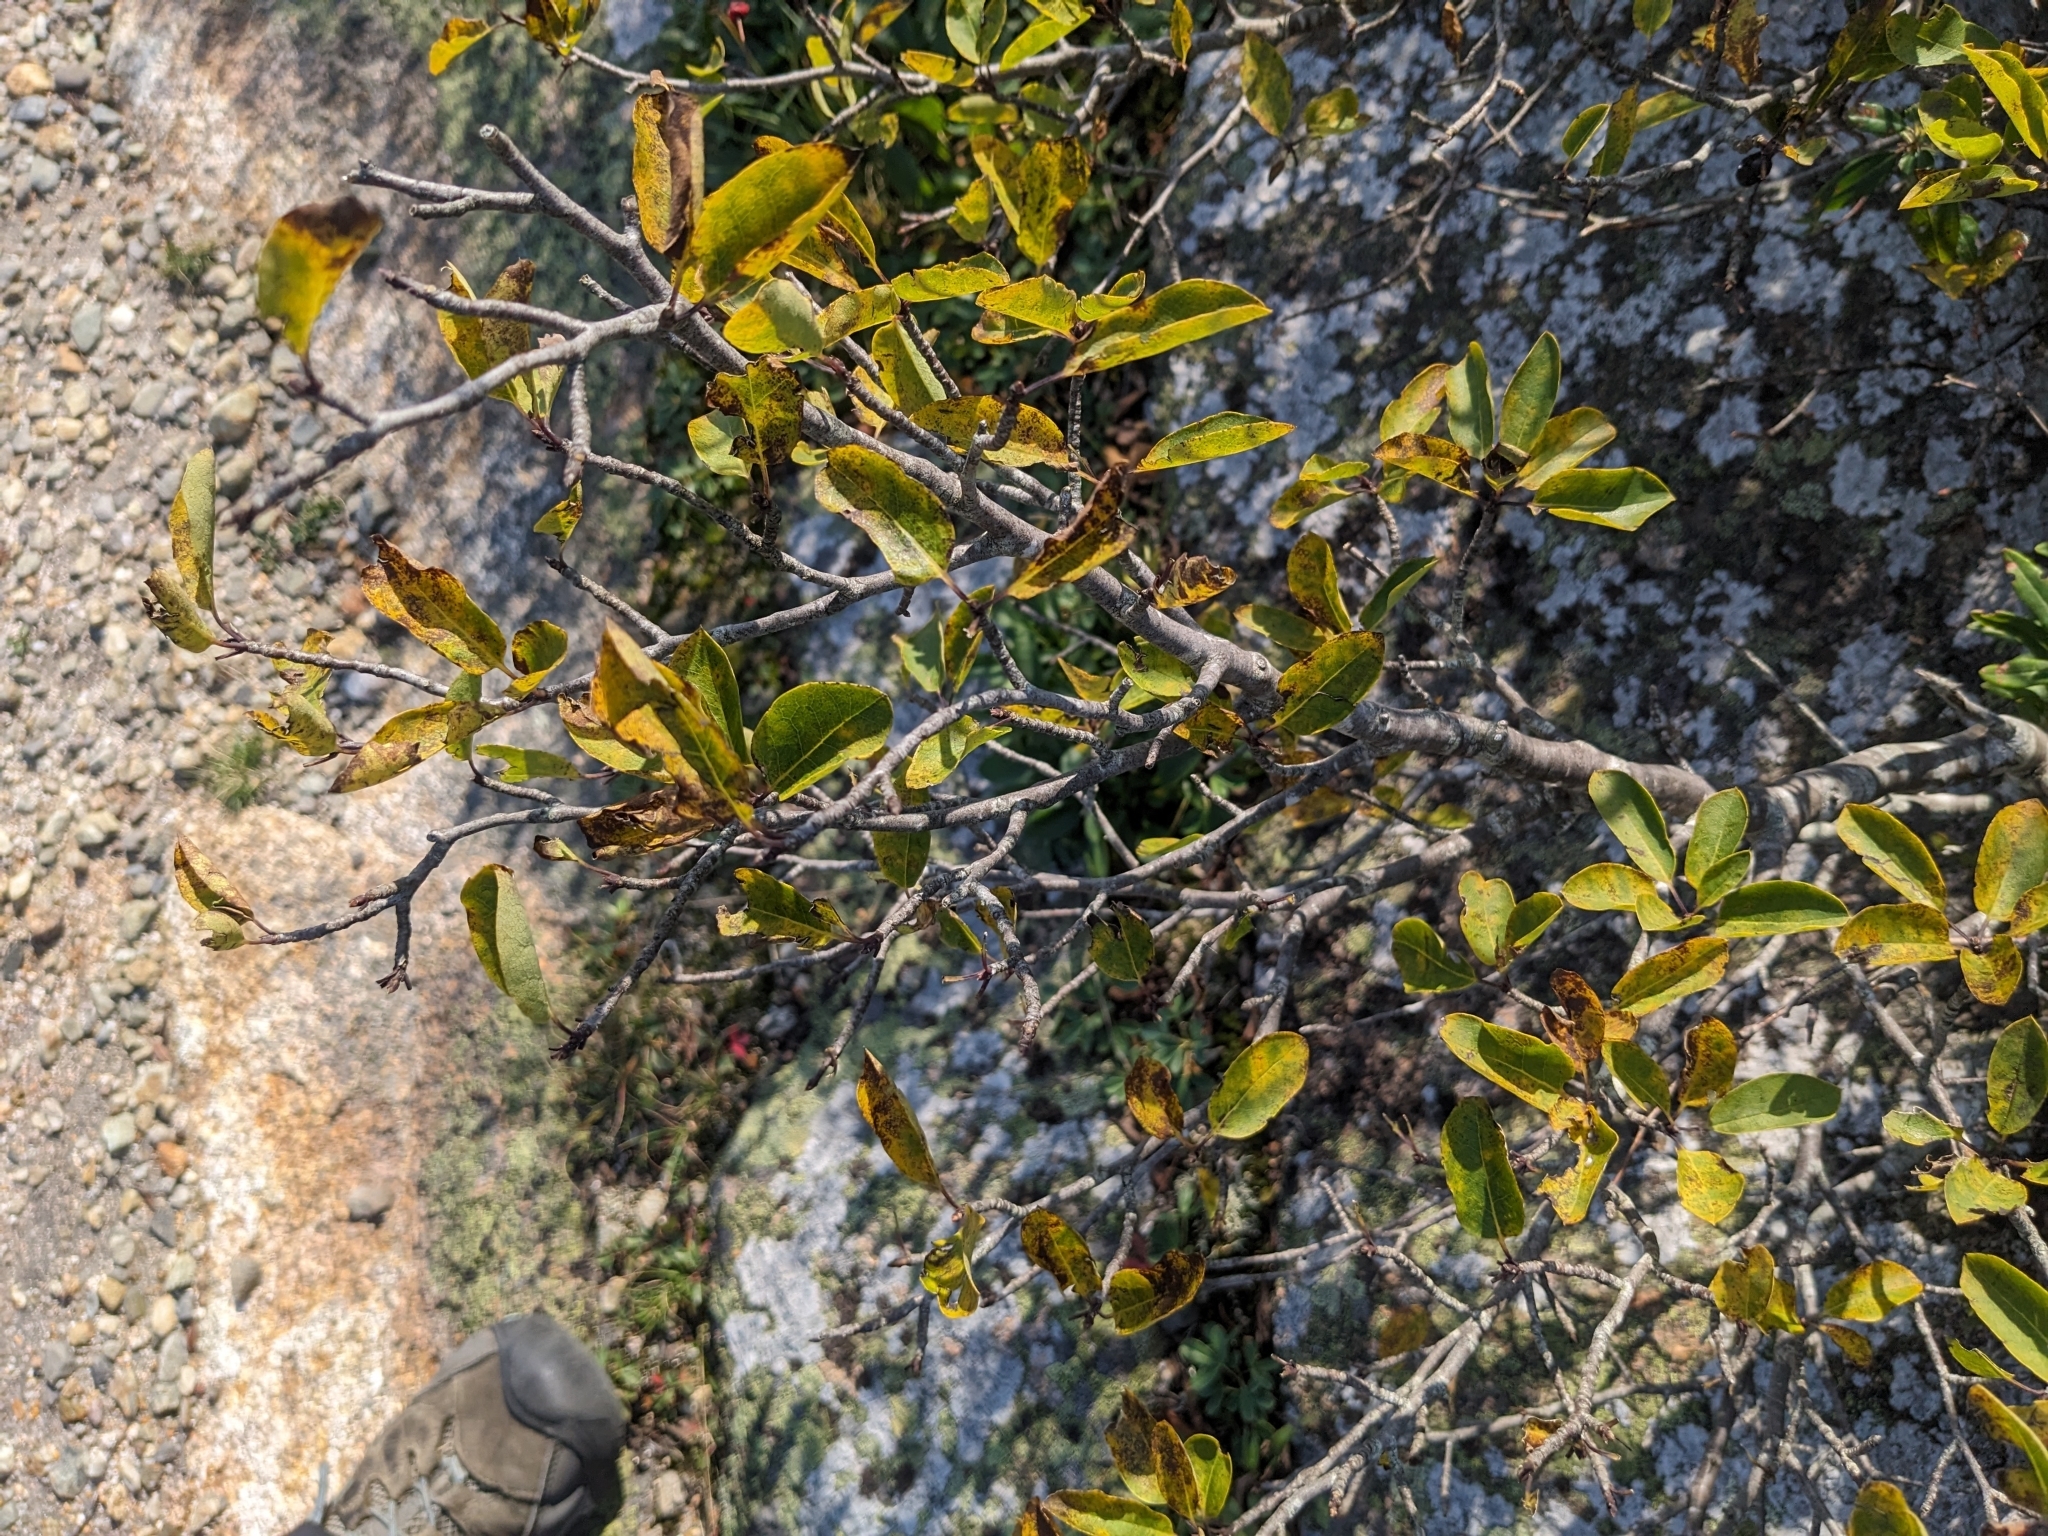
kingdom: Plantae
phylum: Tracheophyta
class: Magnoliopsida
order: Aquifoliales
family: Aquifoliaceae
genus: Ilex
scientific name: Ilex mucronata
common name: Catberry
